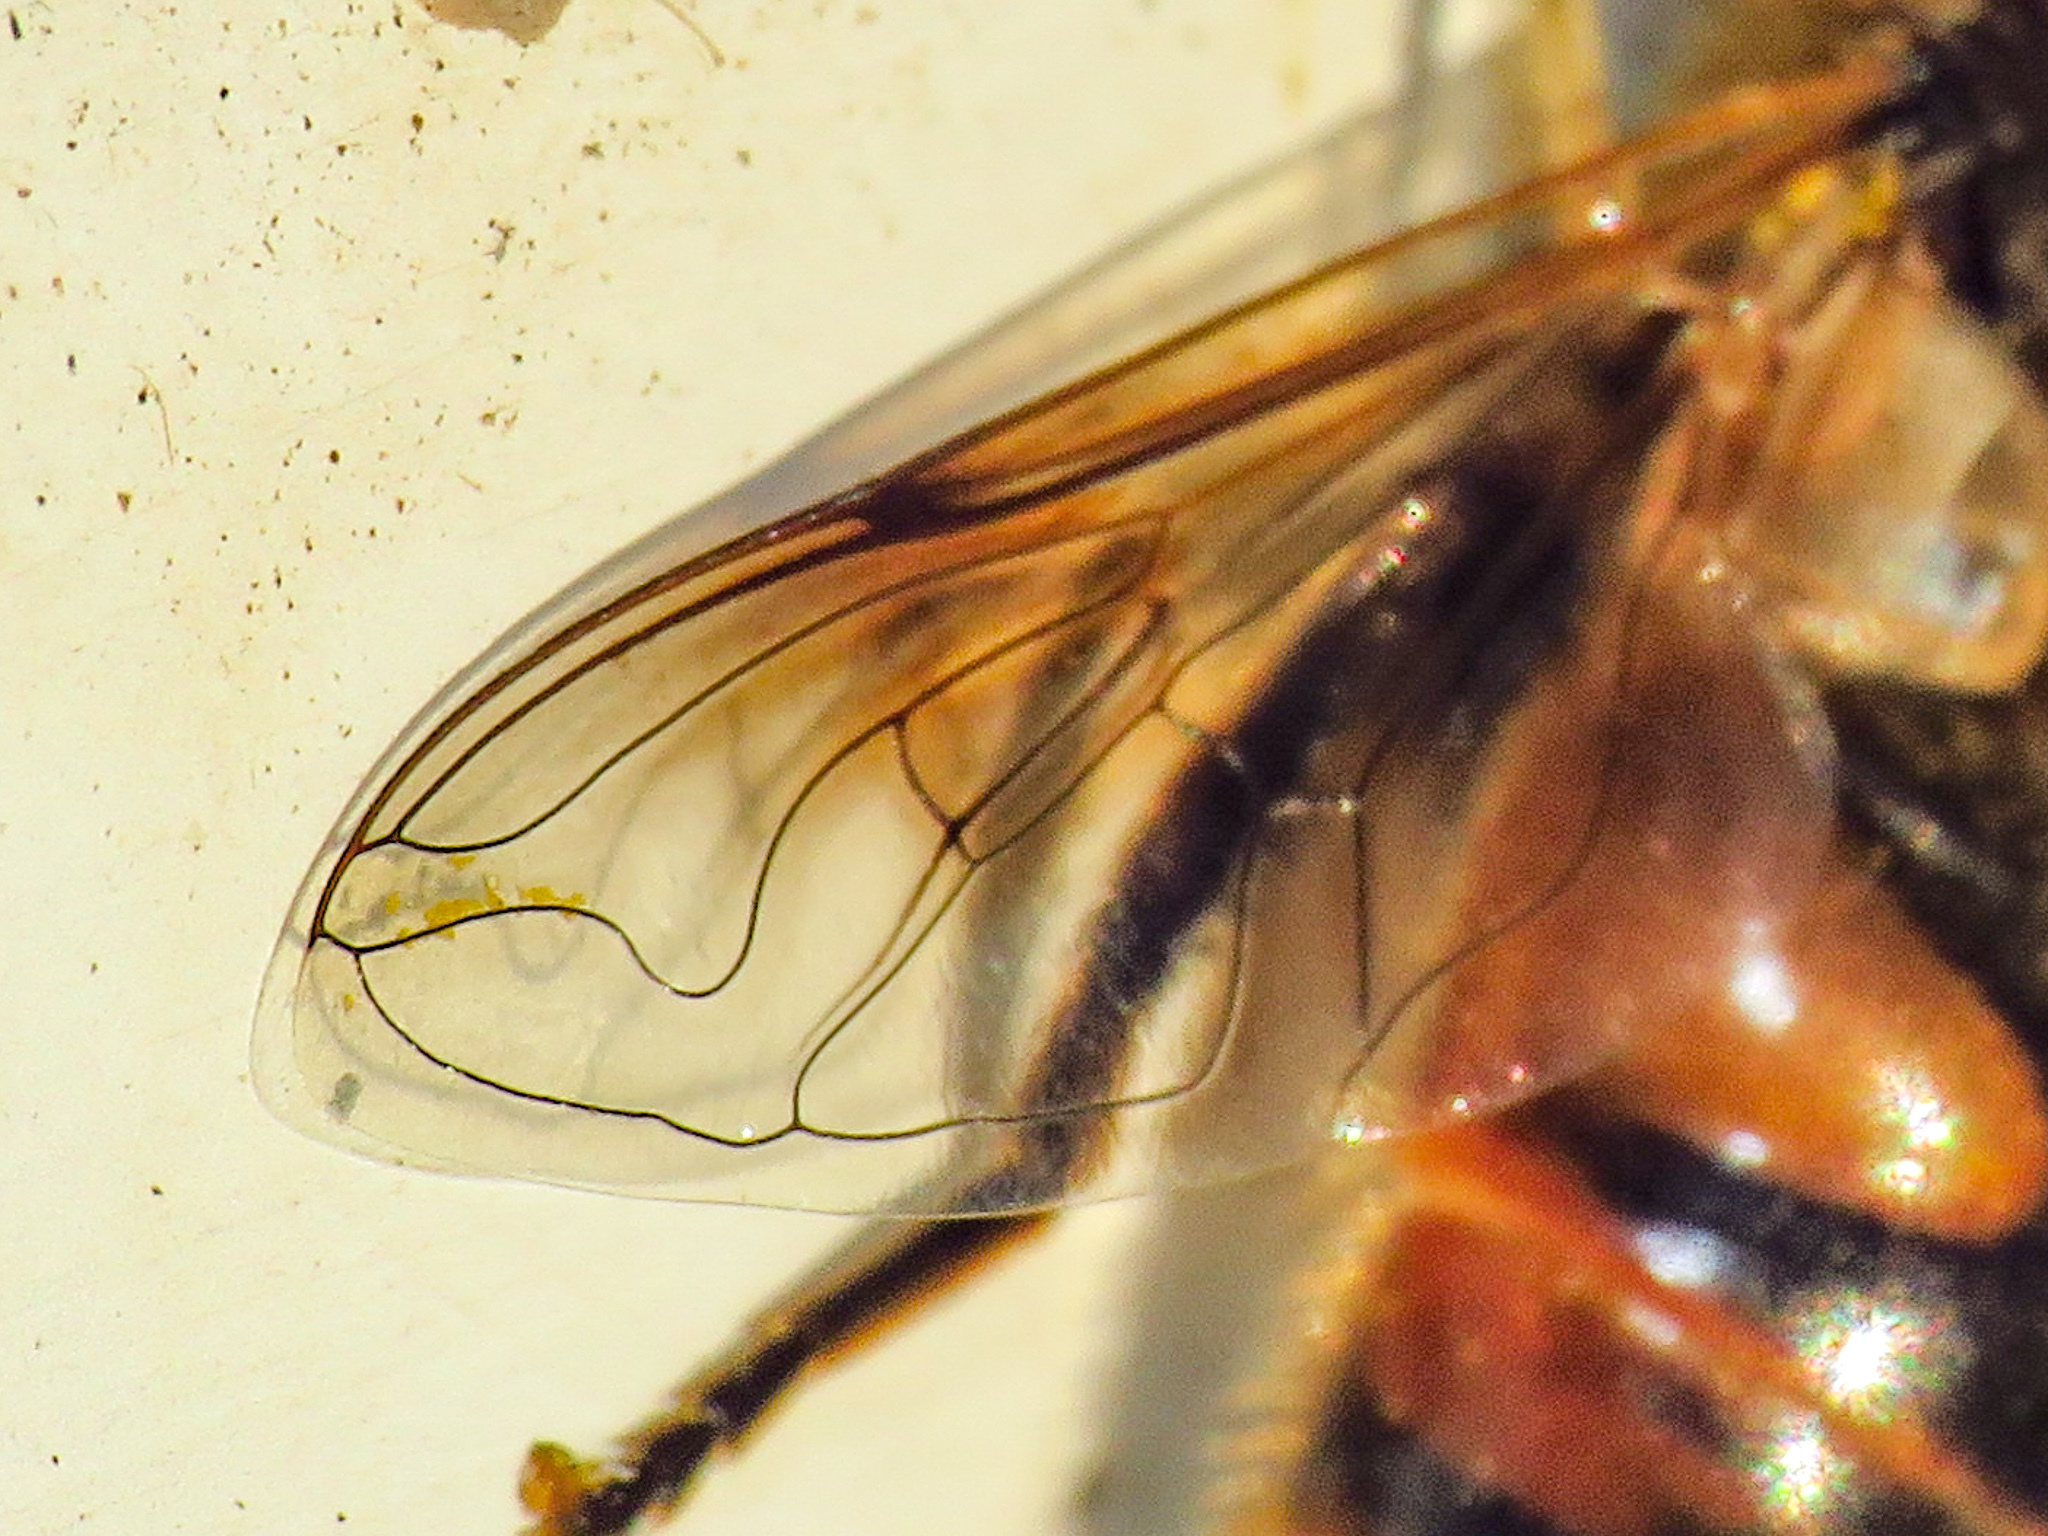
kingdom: Animalia
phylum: Arthropoda
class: Insecta
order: Diptera
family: Syrphidae
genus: Eristalis
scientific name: Eristalis tenax
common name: Drone fly
